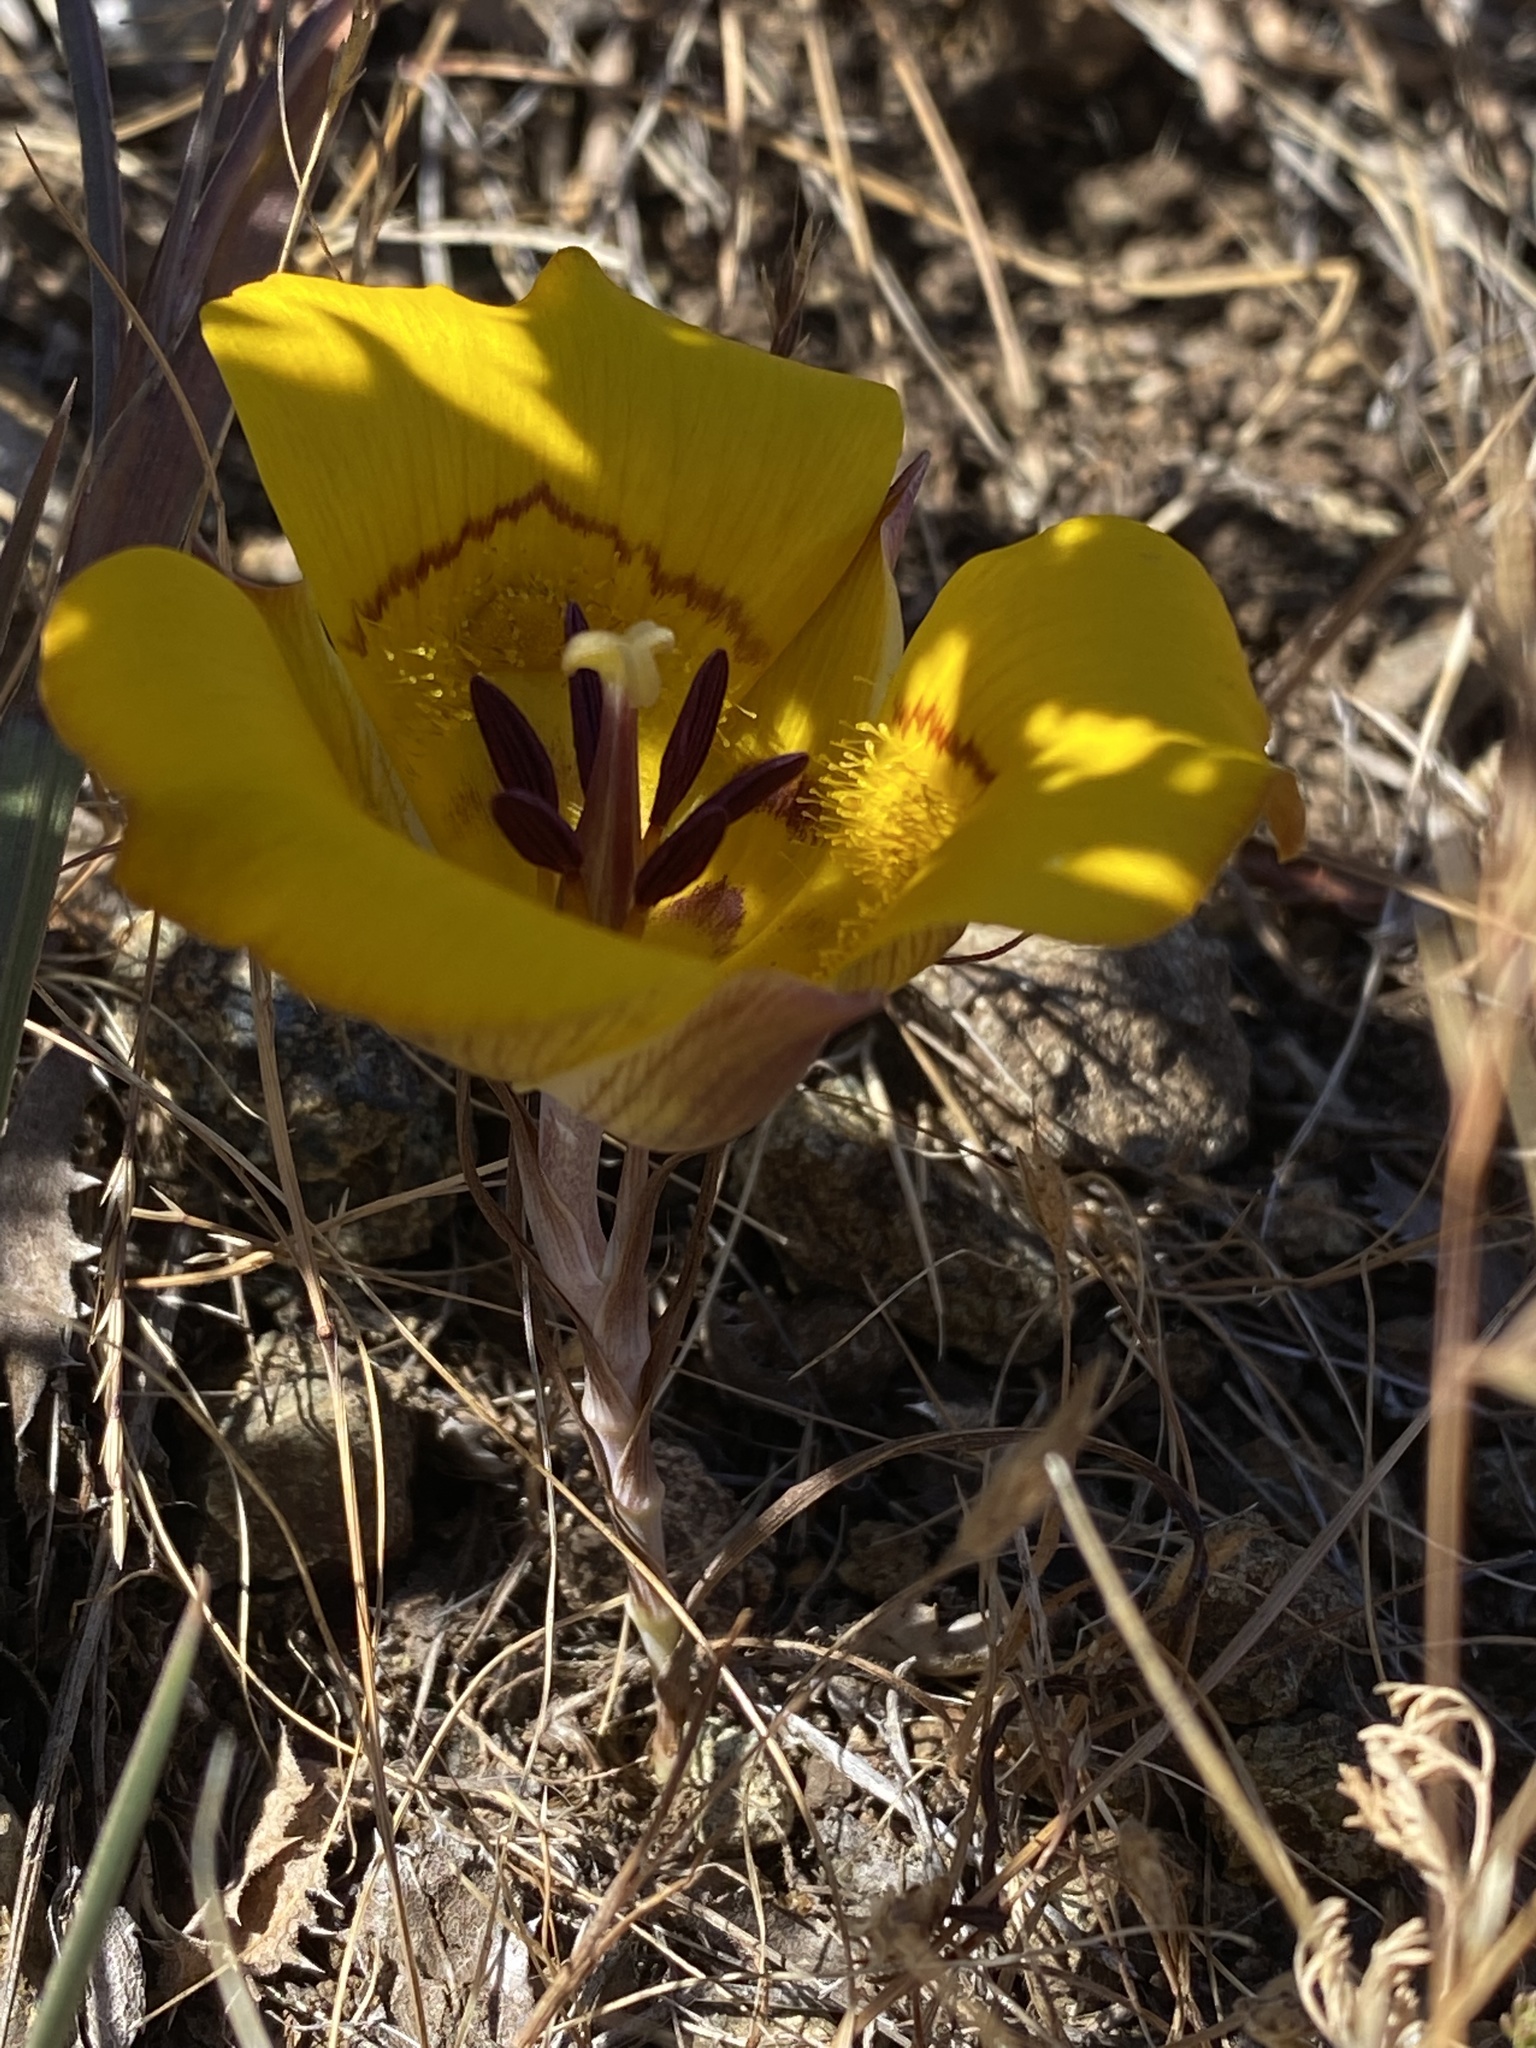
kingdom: Plantae
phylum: Tracheophyta
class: Liliopsida
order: Liliales
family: Liliaceae
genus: Calochortus
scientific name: Calochortus clavatus
